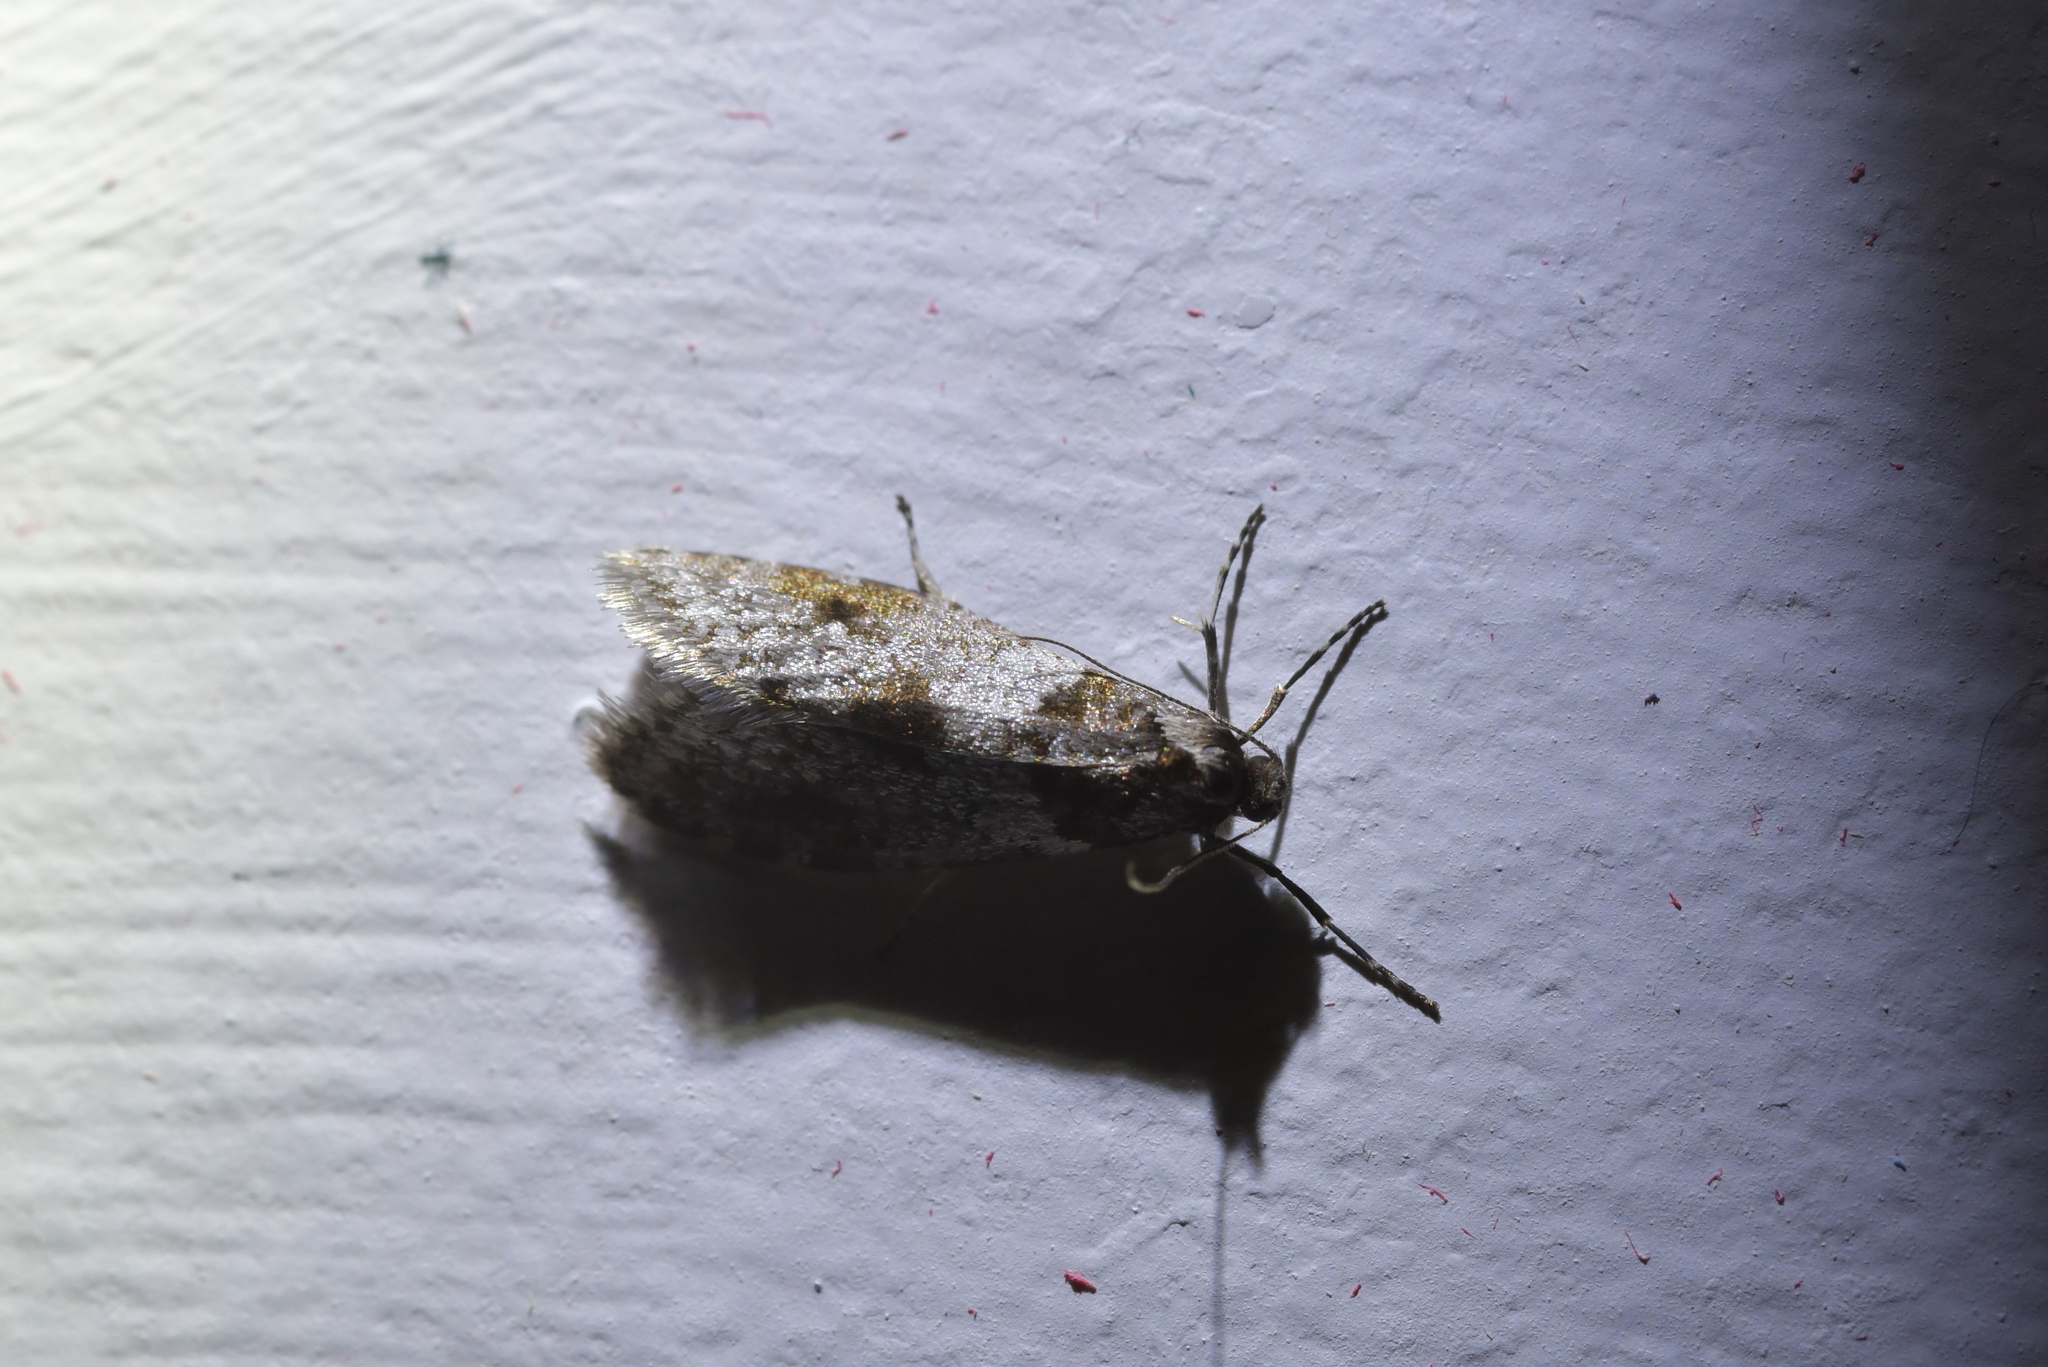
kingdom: Animalia
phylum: Arthropoda
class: Insecta
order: Lepidoptera
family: Psychidae
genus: Lepidoscia
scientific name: Lepidoscia heliochares
